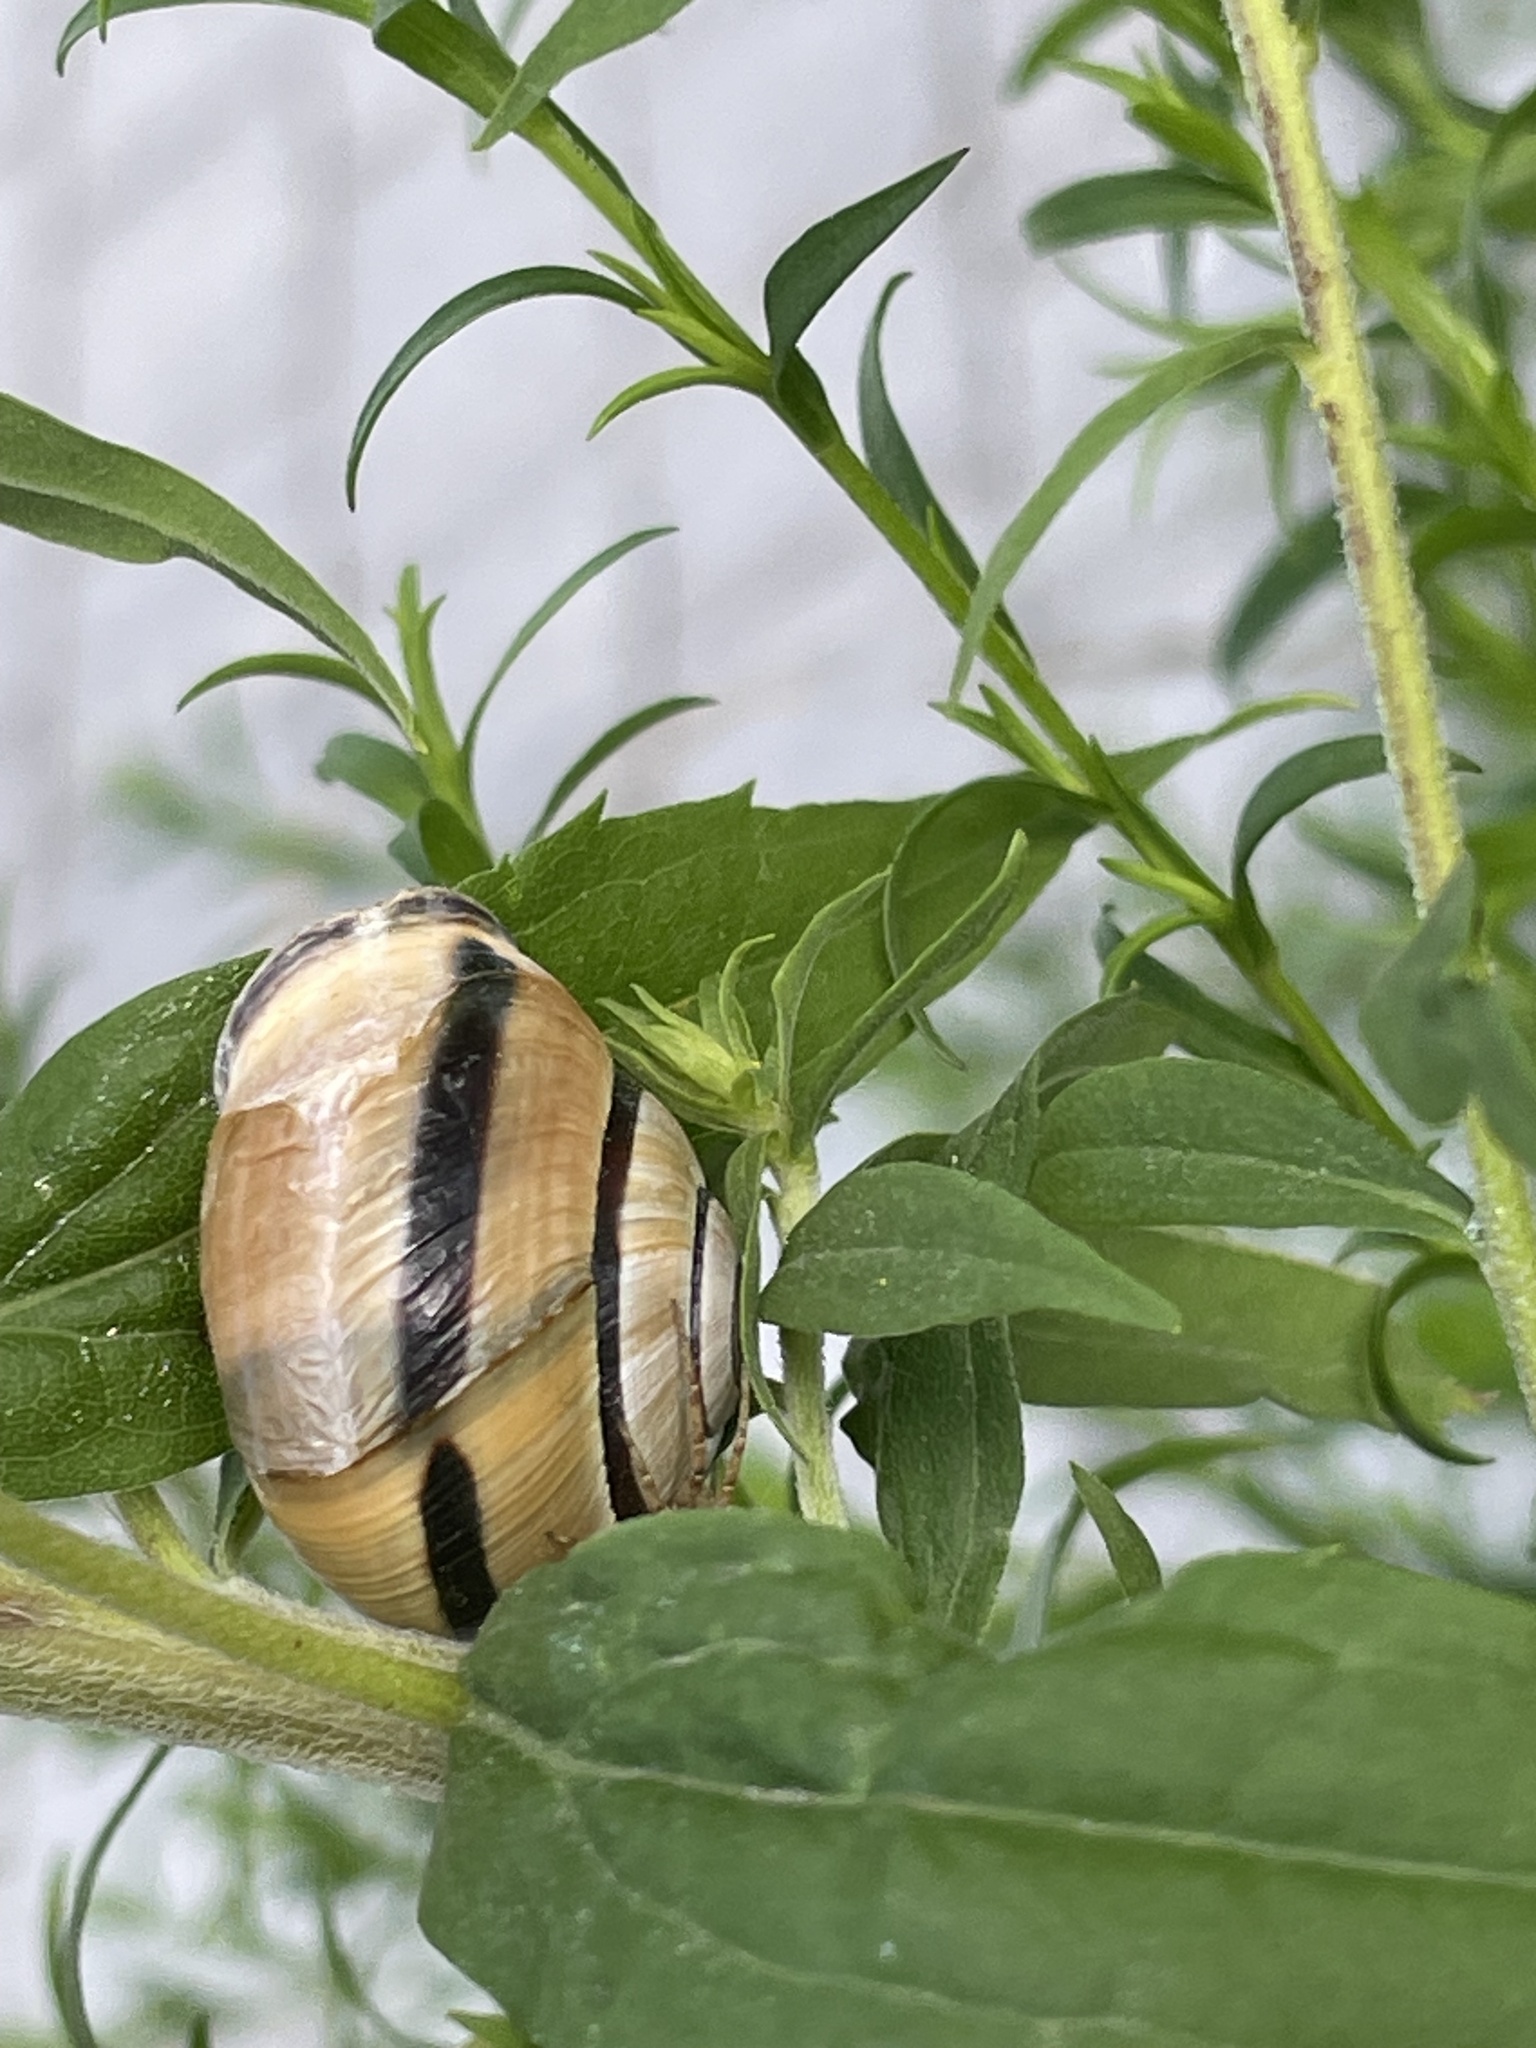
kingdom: Animalia
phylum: Mollusca
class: Gastropoda
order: Stylommatophora
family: Helicidae
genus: Cepaea
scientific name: Cepaea nemoralis
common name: Grovesnail
